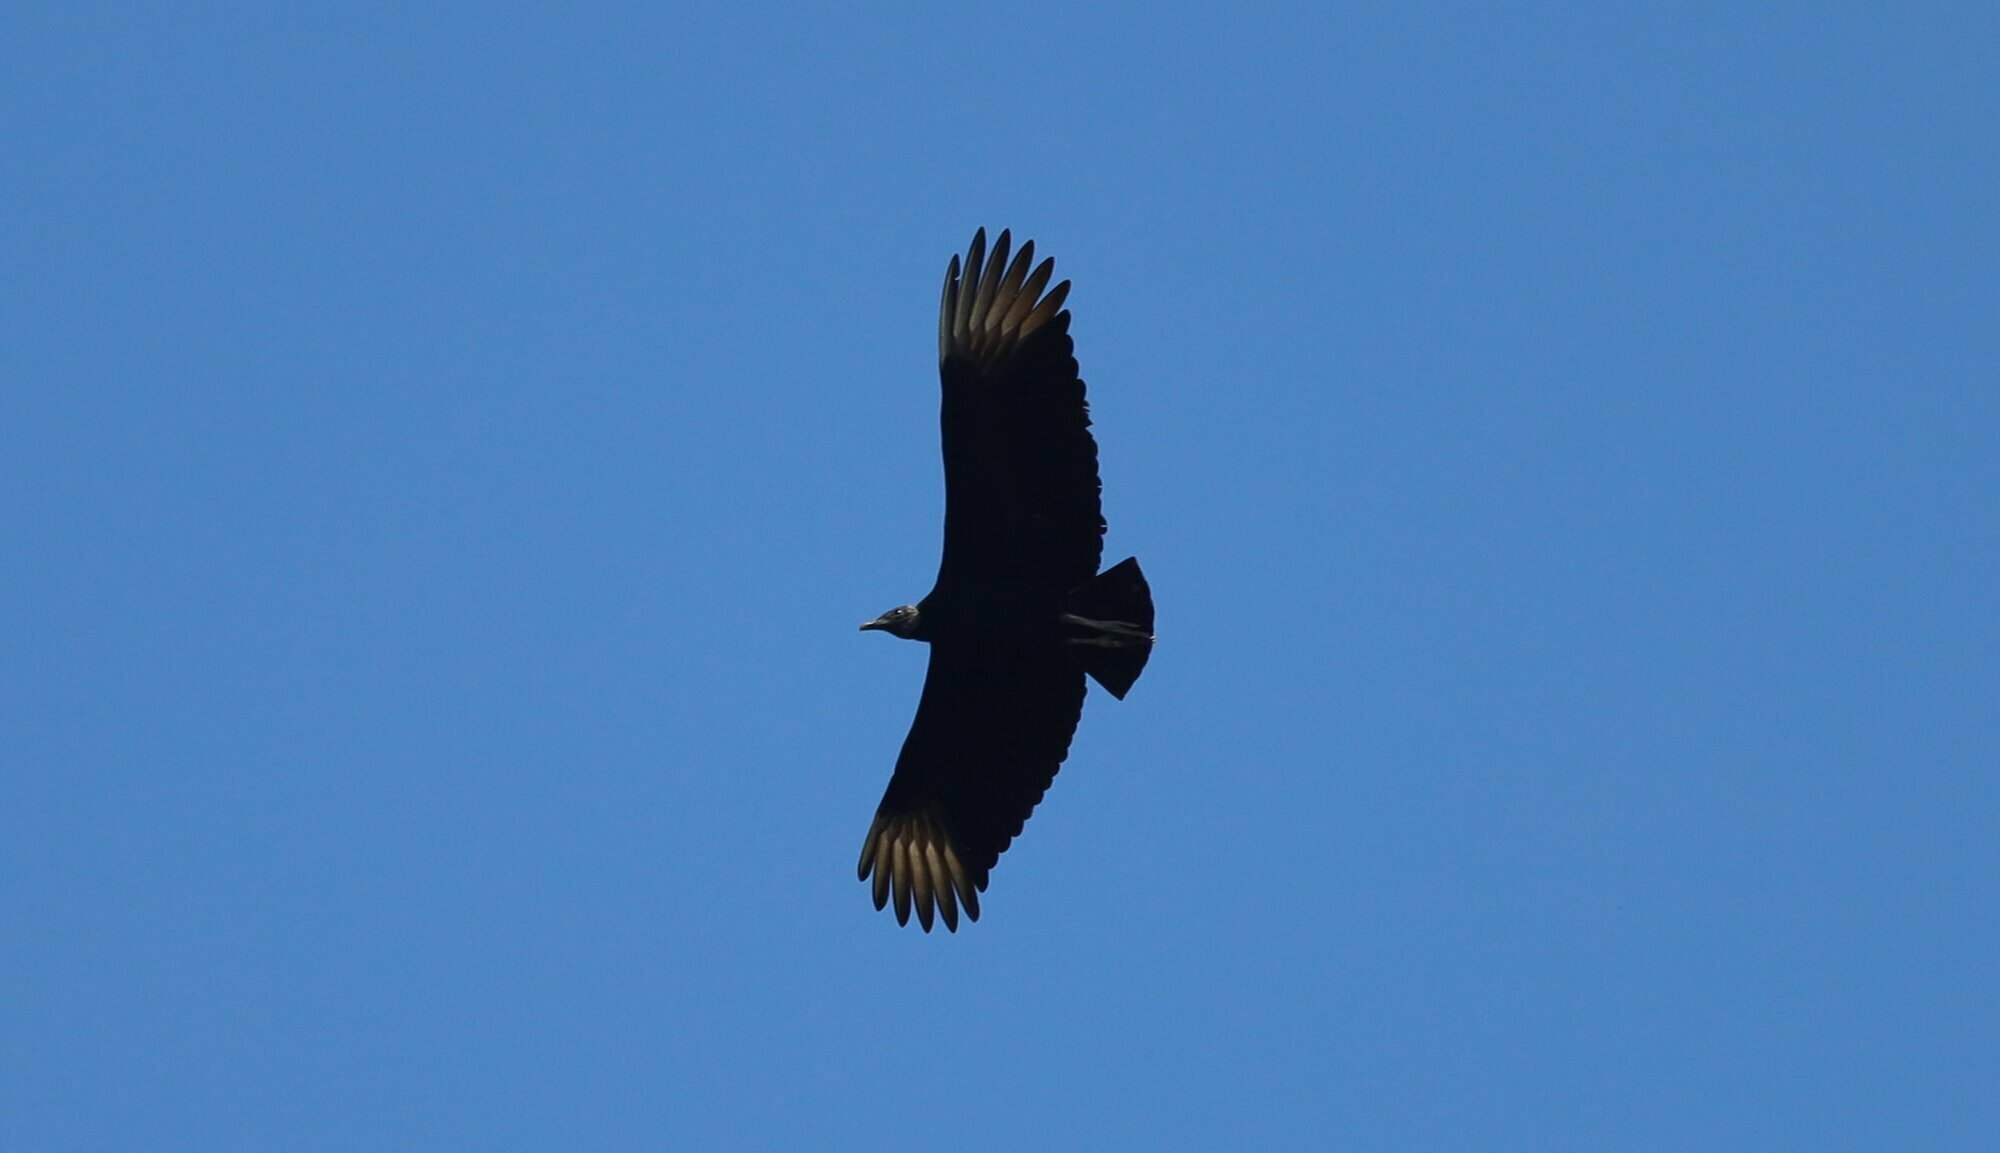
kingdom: Animalia
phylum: Chordata
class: Aves
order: Accipitriformes
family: Cathartidae
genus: Coragyps
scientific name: Coragyps atratus
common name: Black vulture
